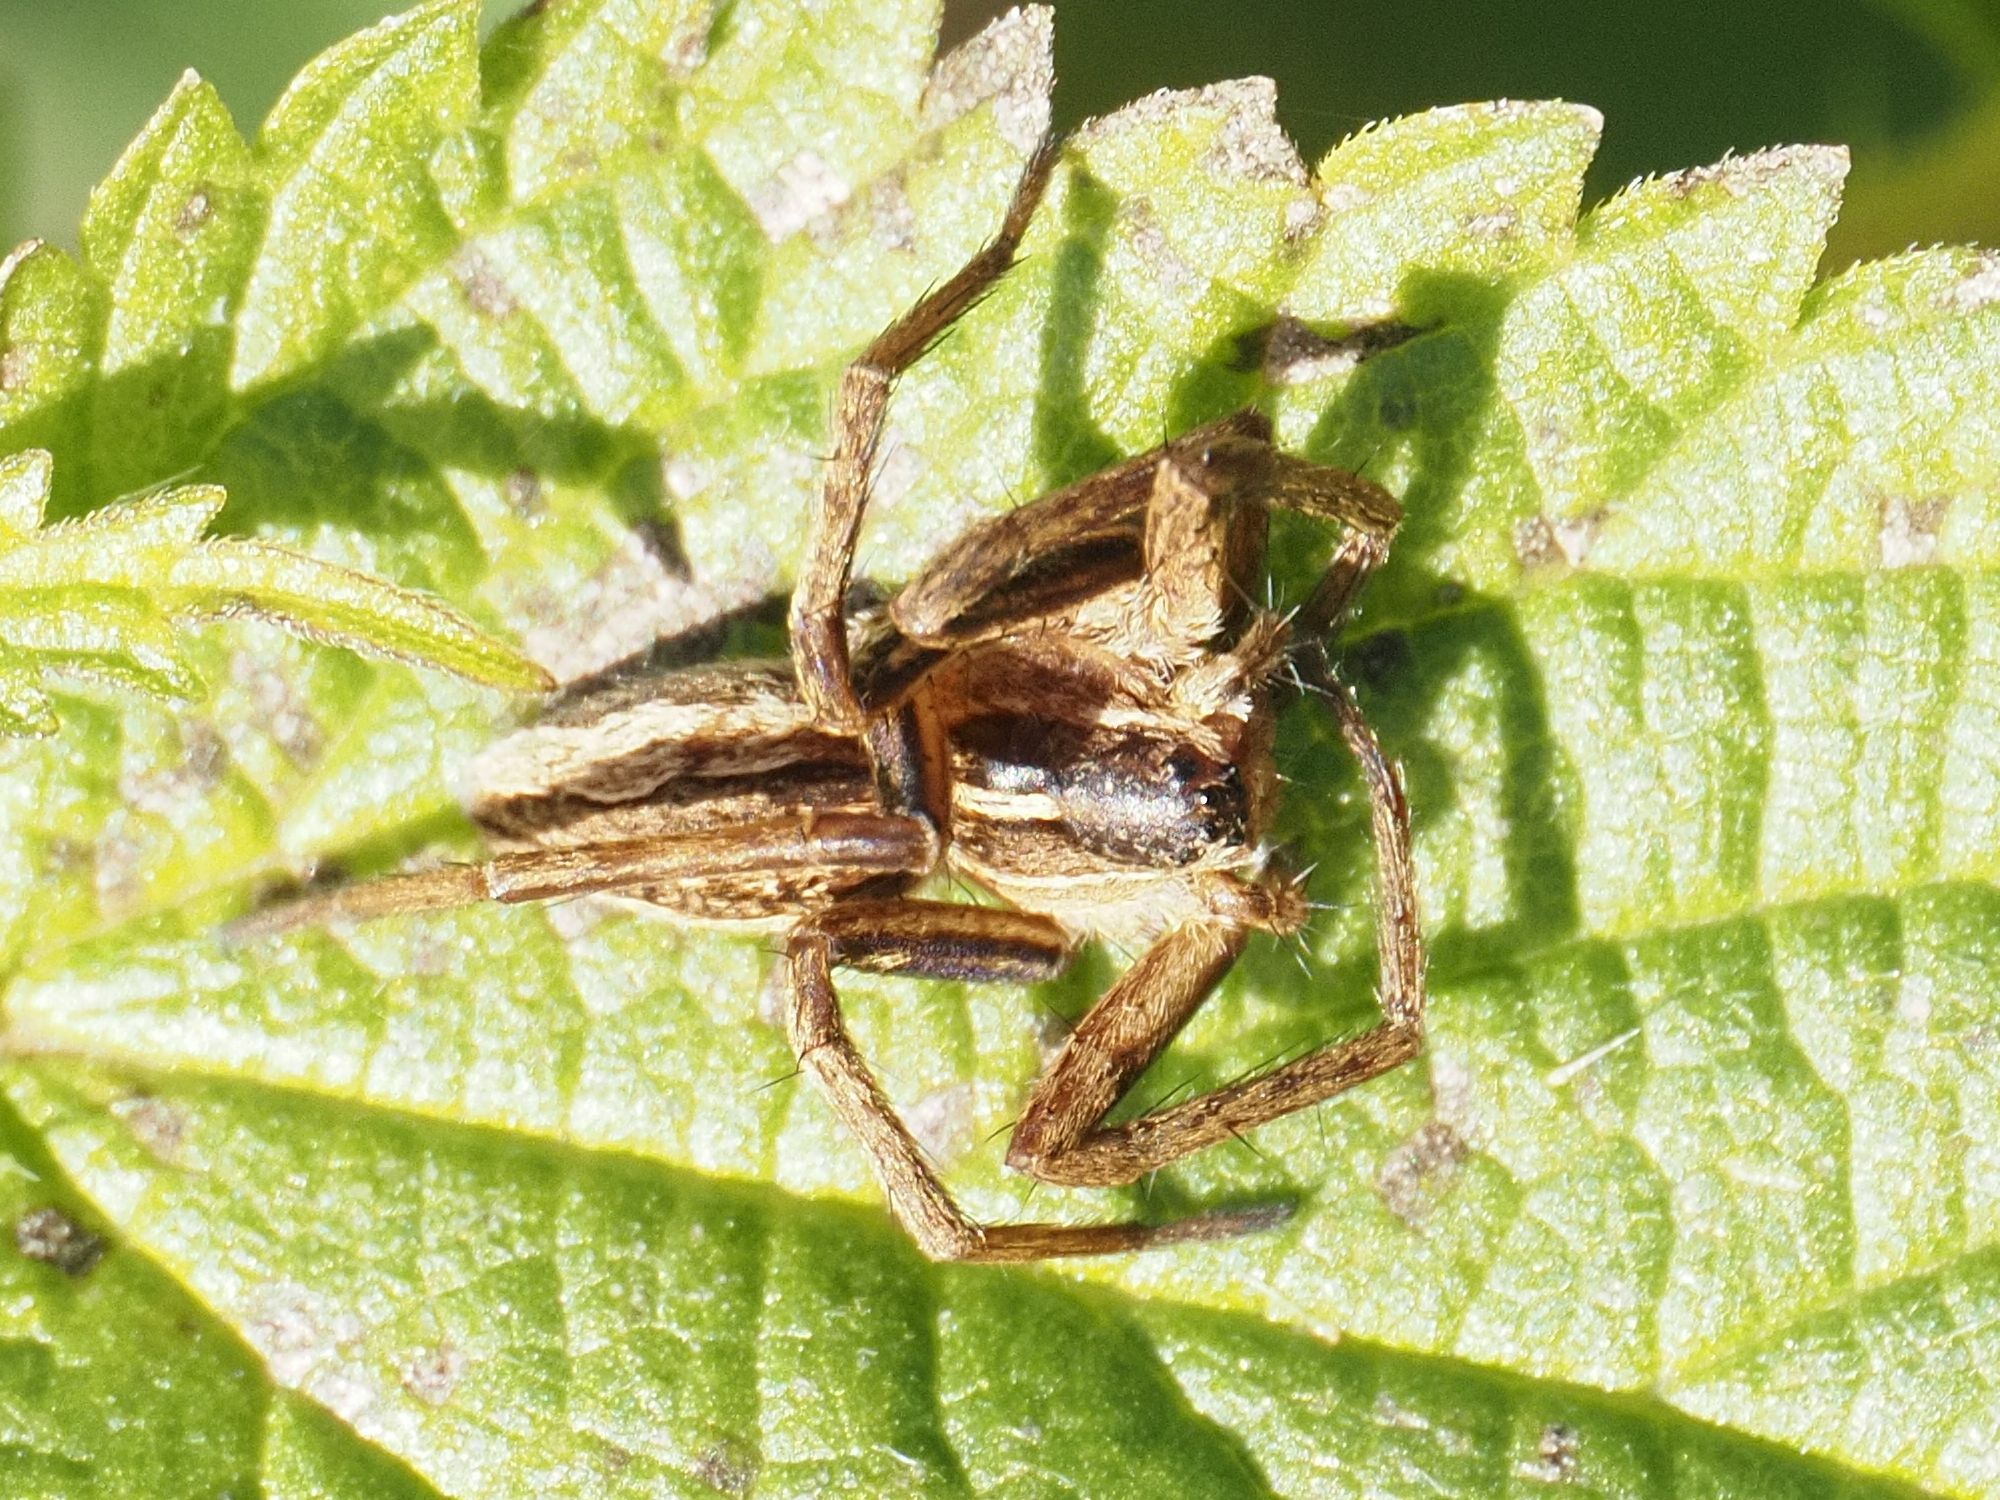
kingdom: Animalia
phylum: Arthropoda
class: Arachnida
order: Araneae
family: Pisauridae
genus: Pisaura
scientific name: Pisaura mirabilis
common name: Tent spider
